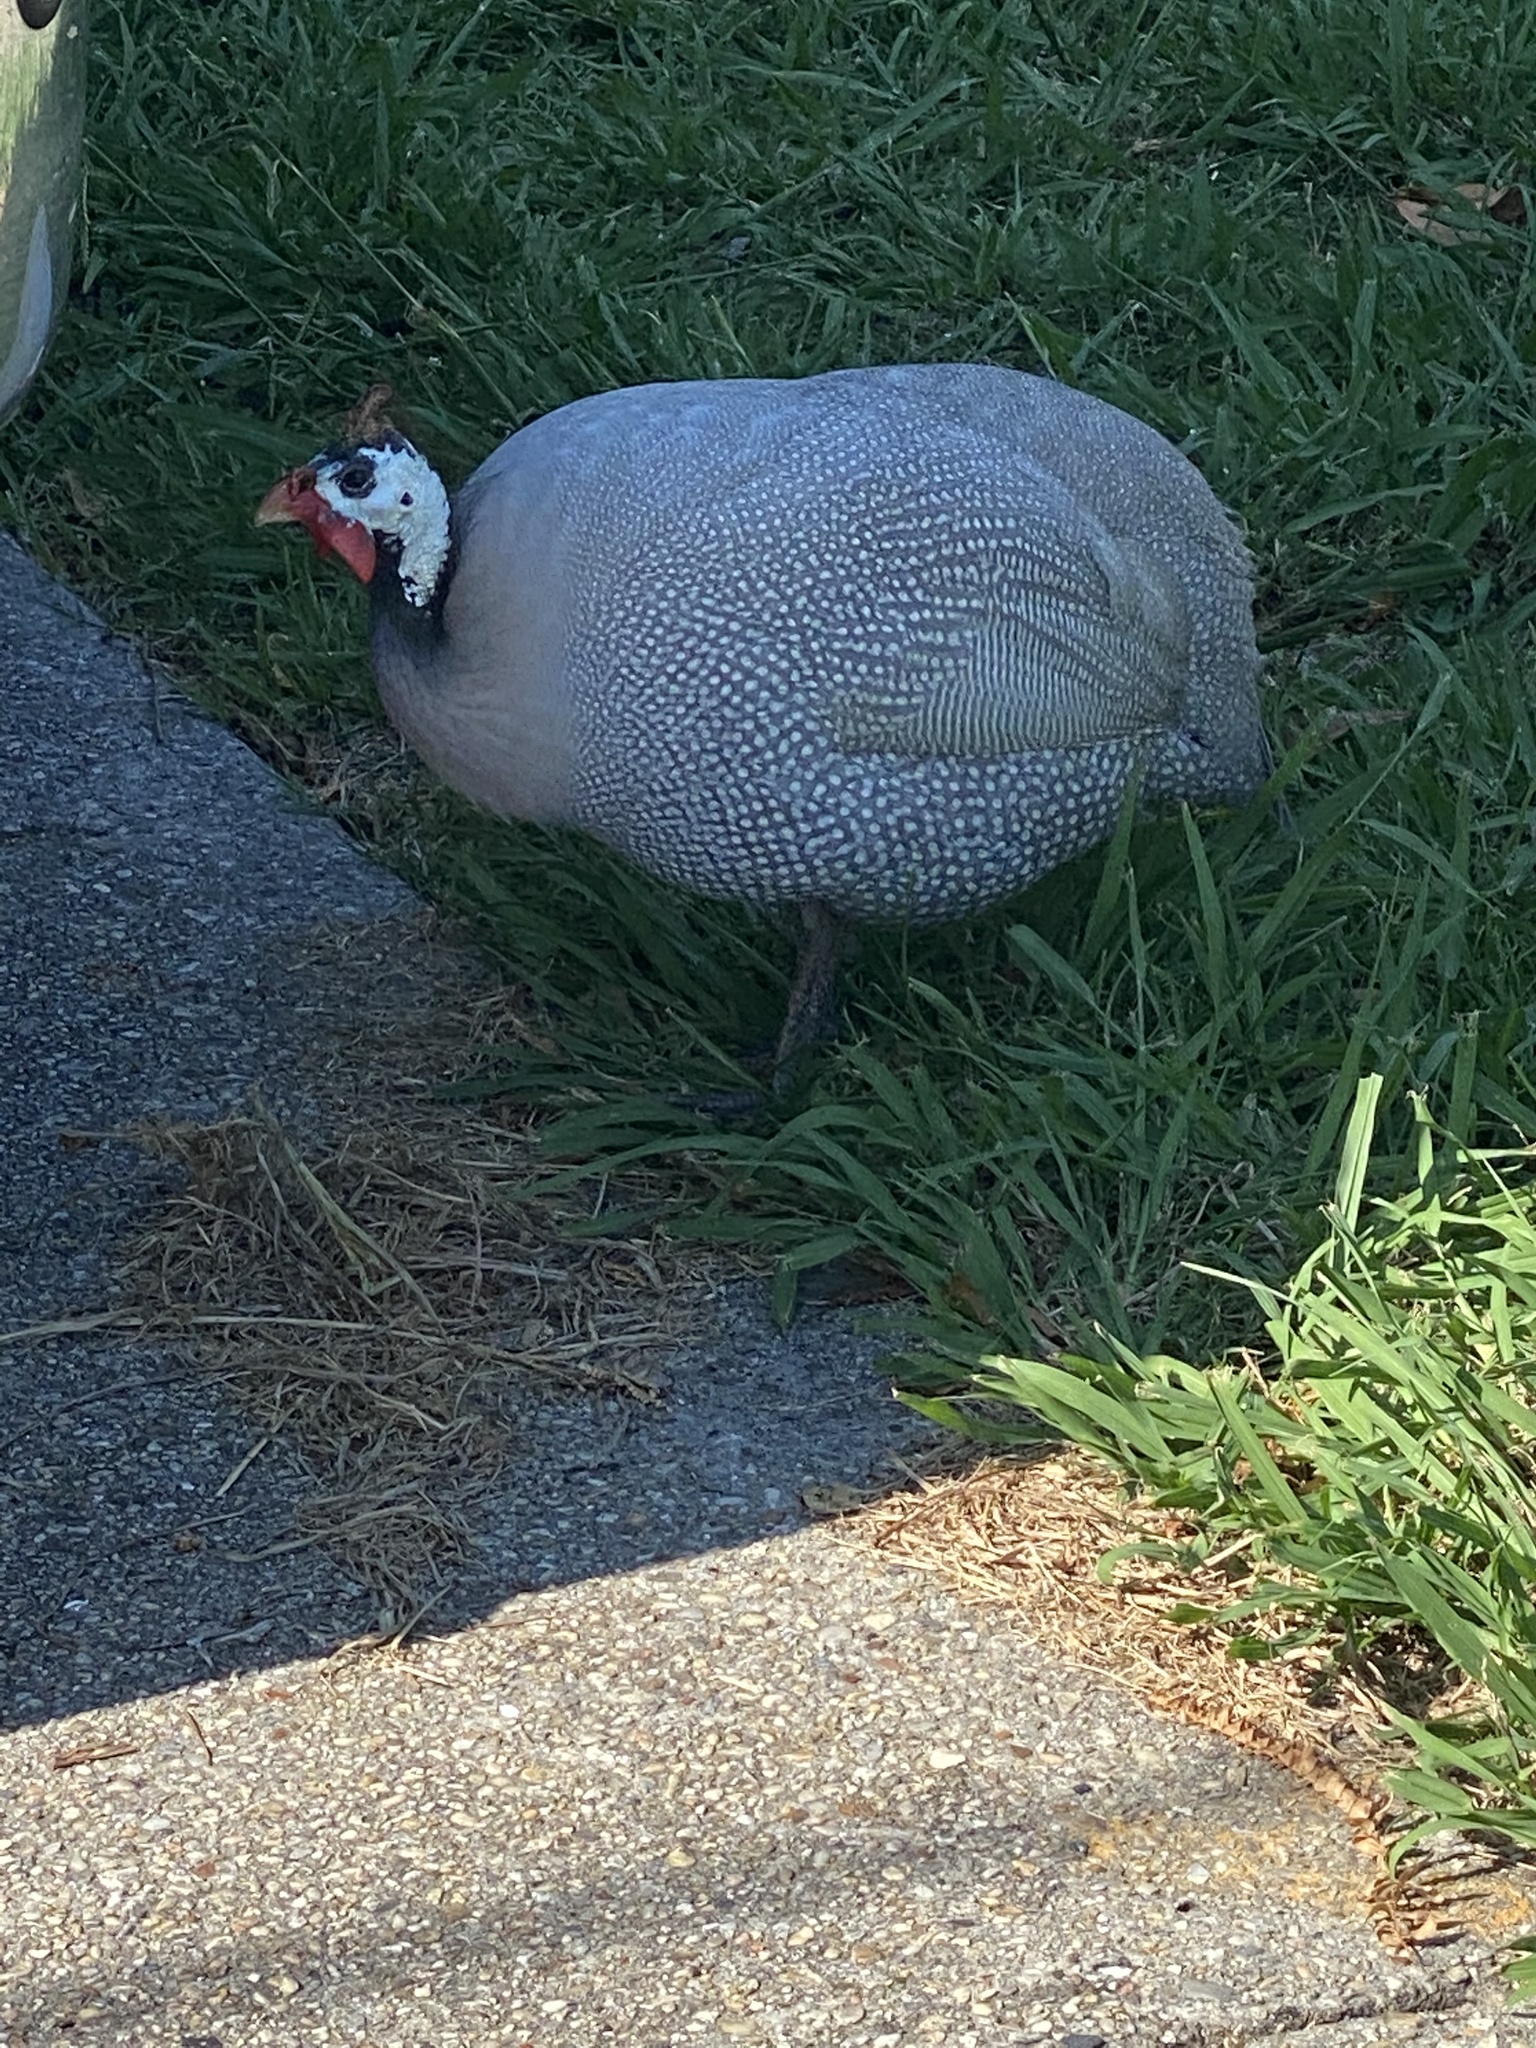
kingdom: Animalia
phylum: Chordata
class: Aves
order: Galliformes
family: Numididae
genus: Numida
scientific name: Numida meleagris
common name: Helmeted guineafowl
